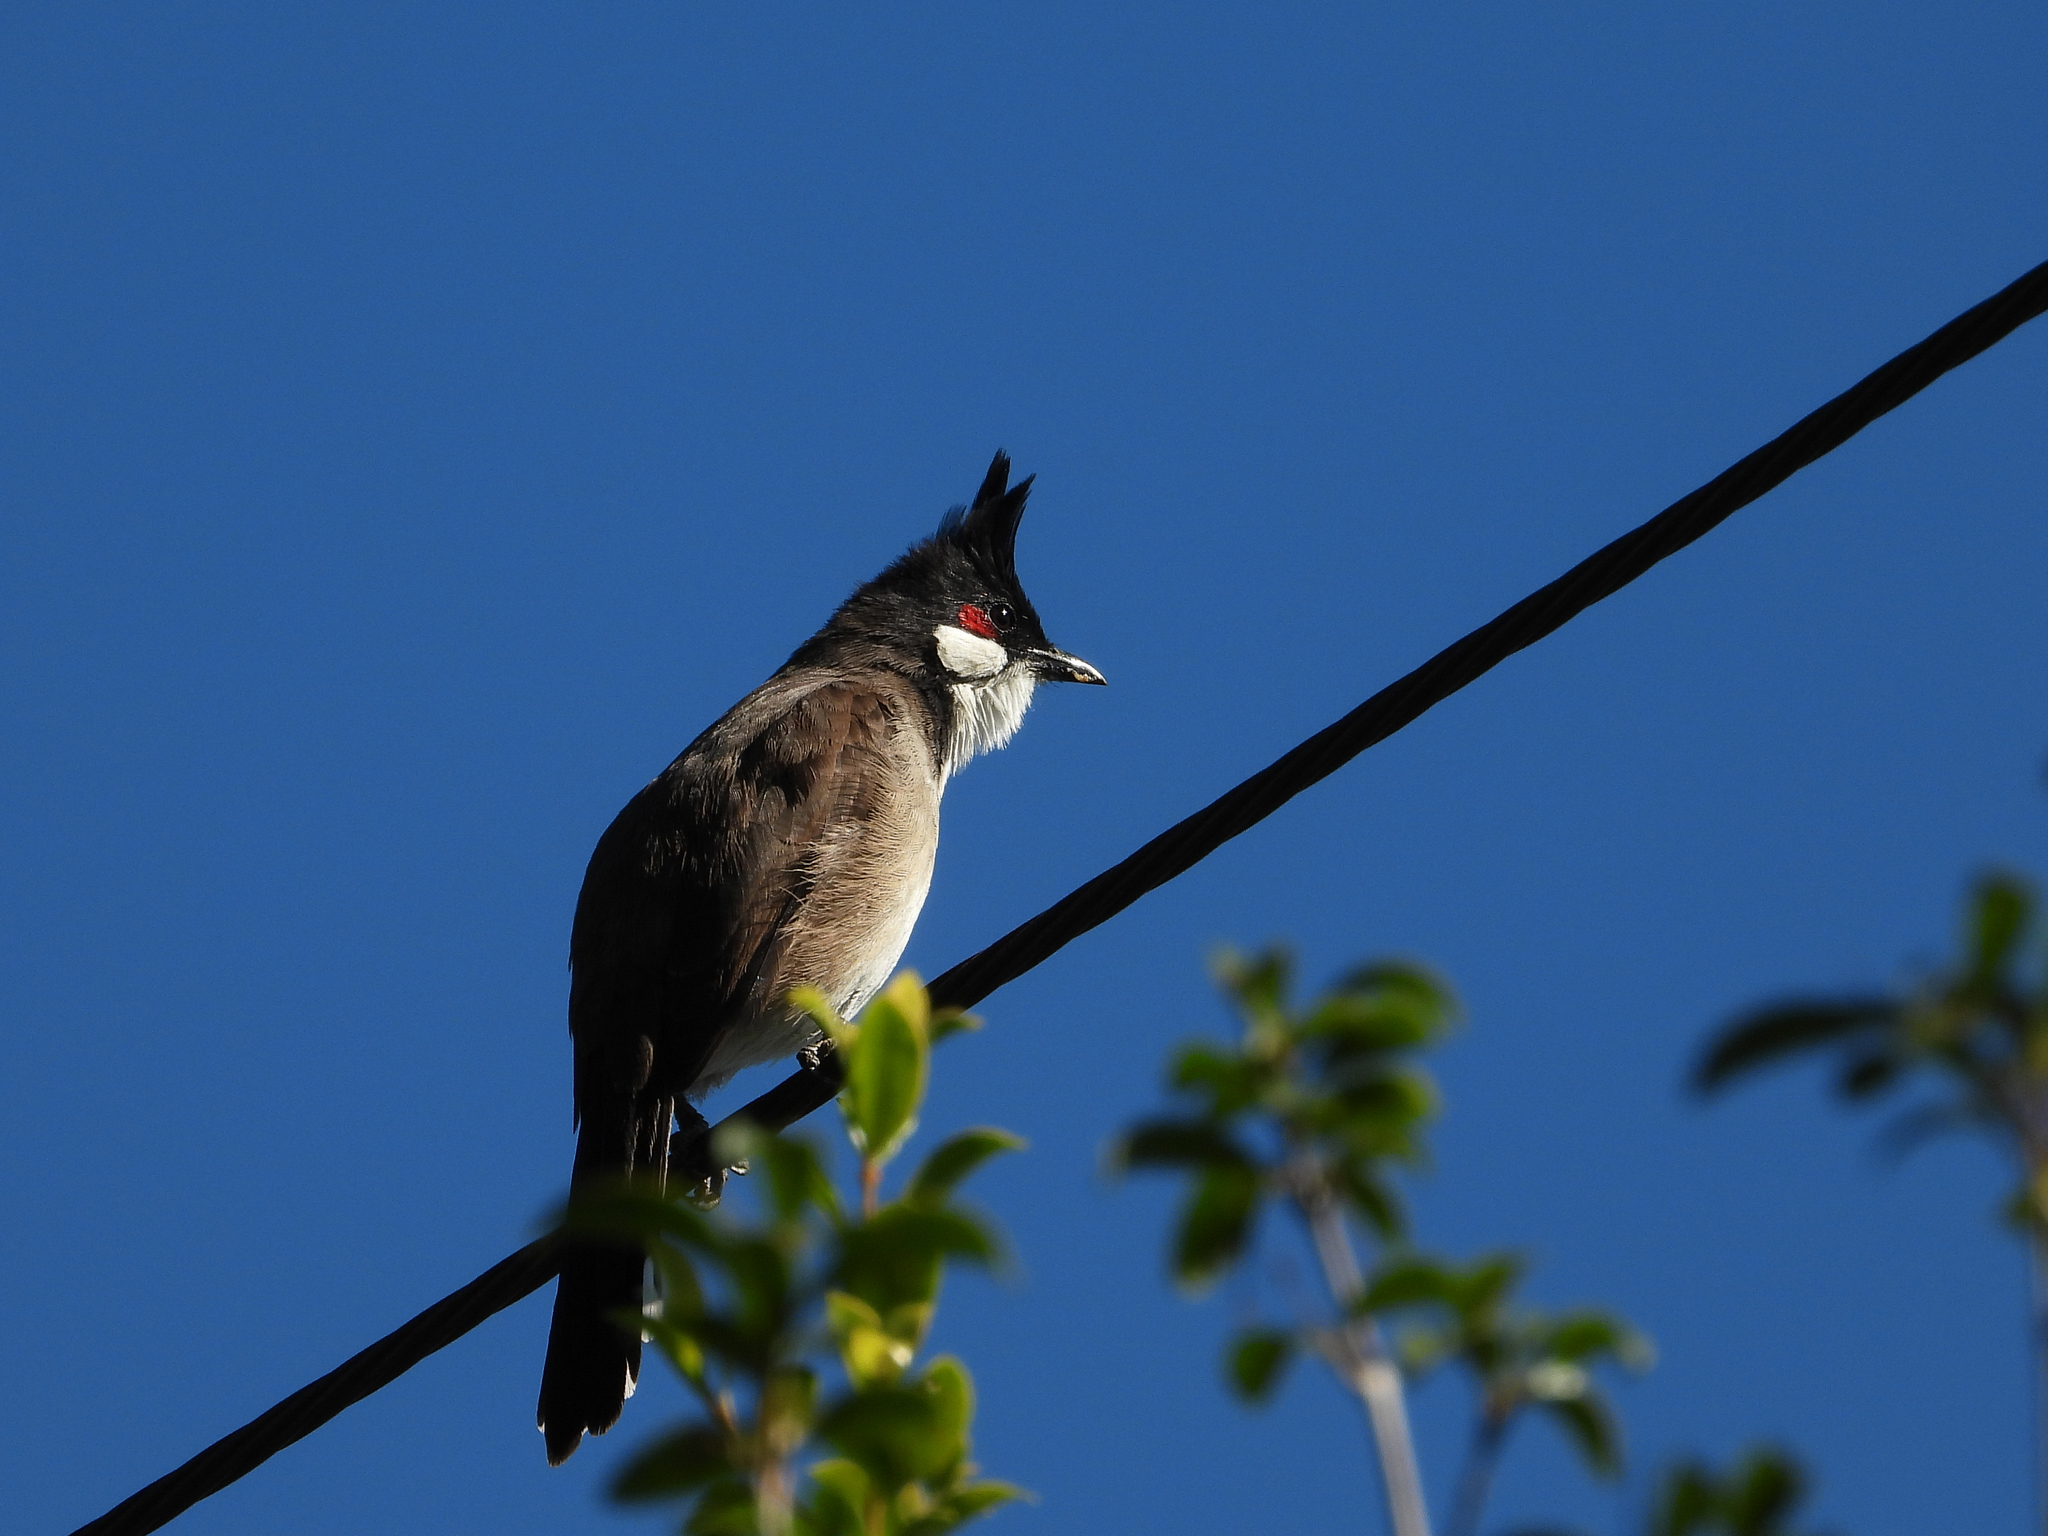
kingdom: Animalia
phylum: Chordata
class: Aves
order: Passeriformes
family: Pycnonotidae
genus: Pycnonotus
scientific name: Pycnonotus jocosus
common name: Red-whiskered bulbul
